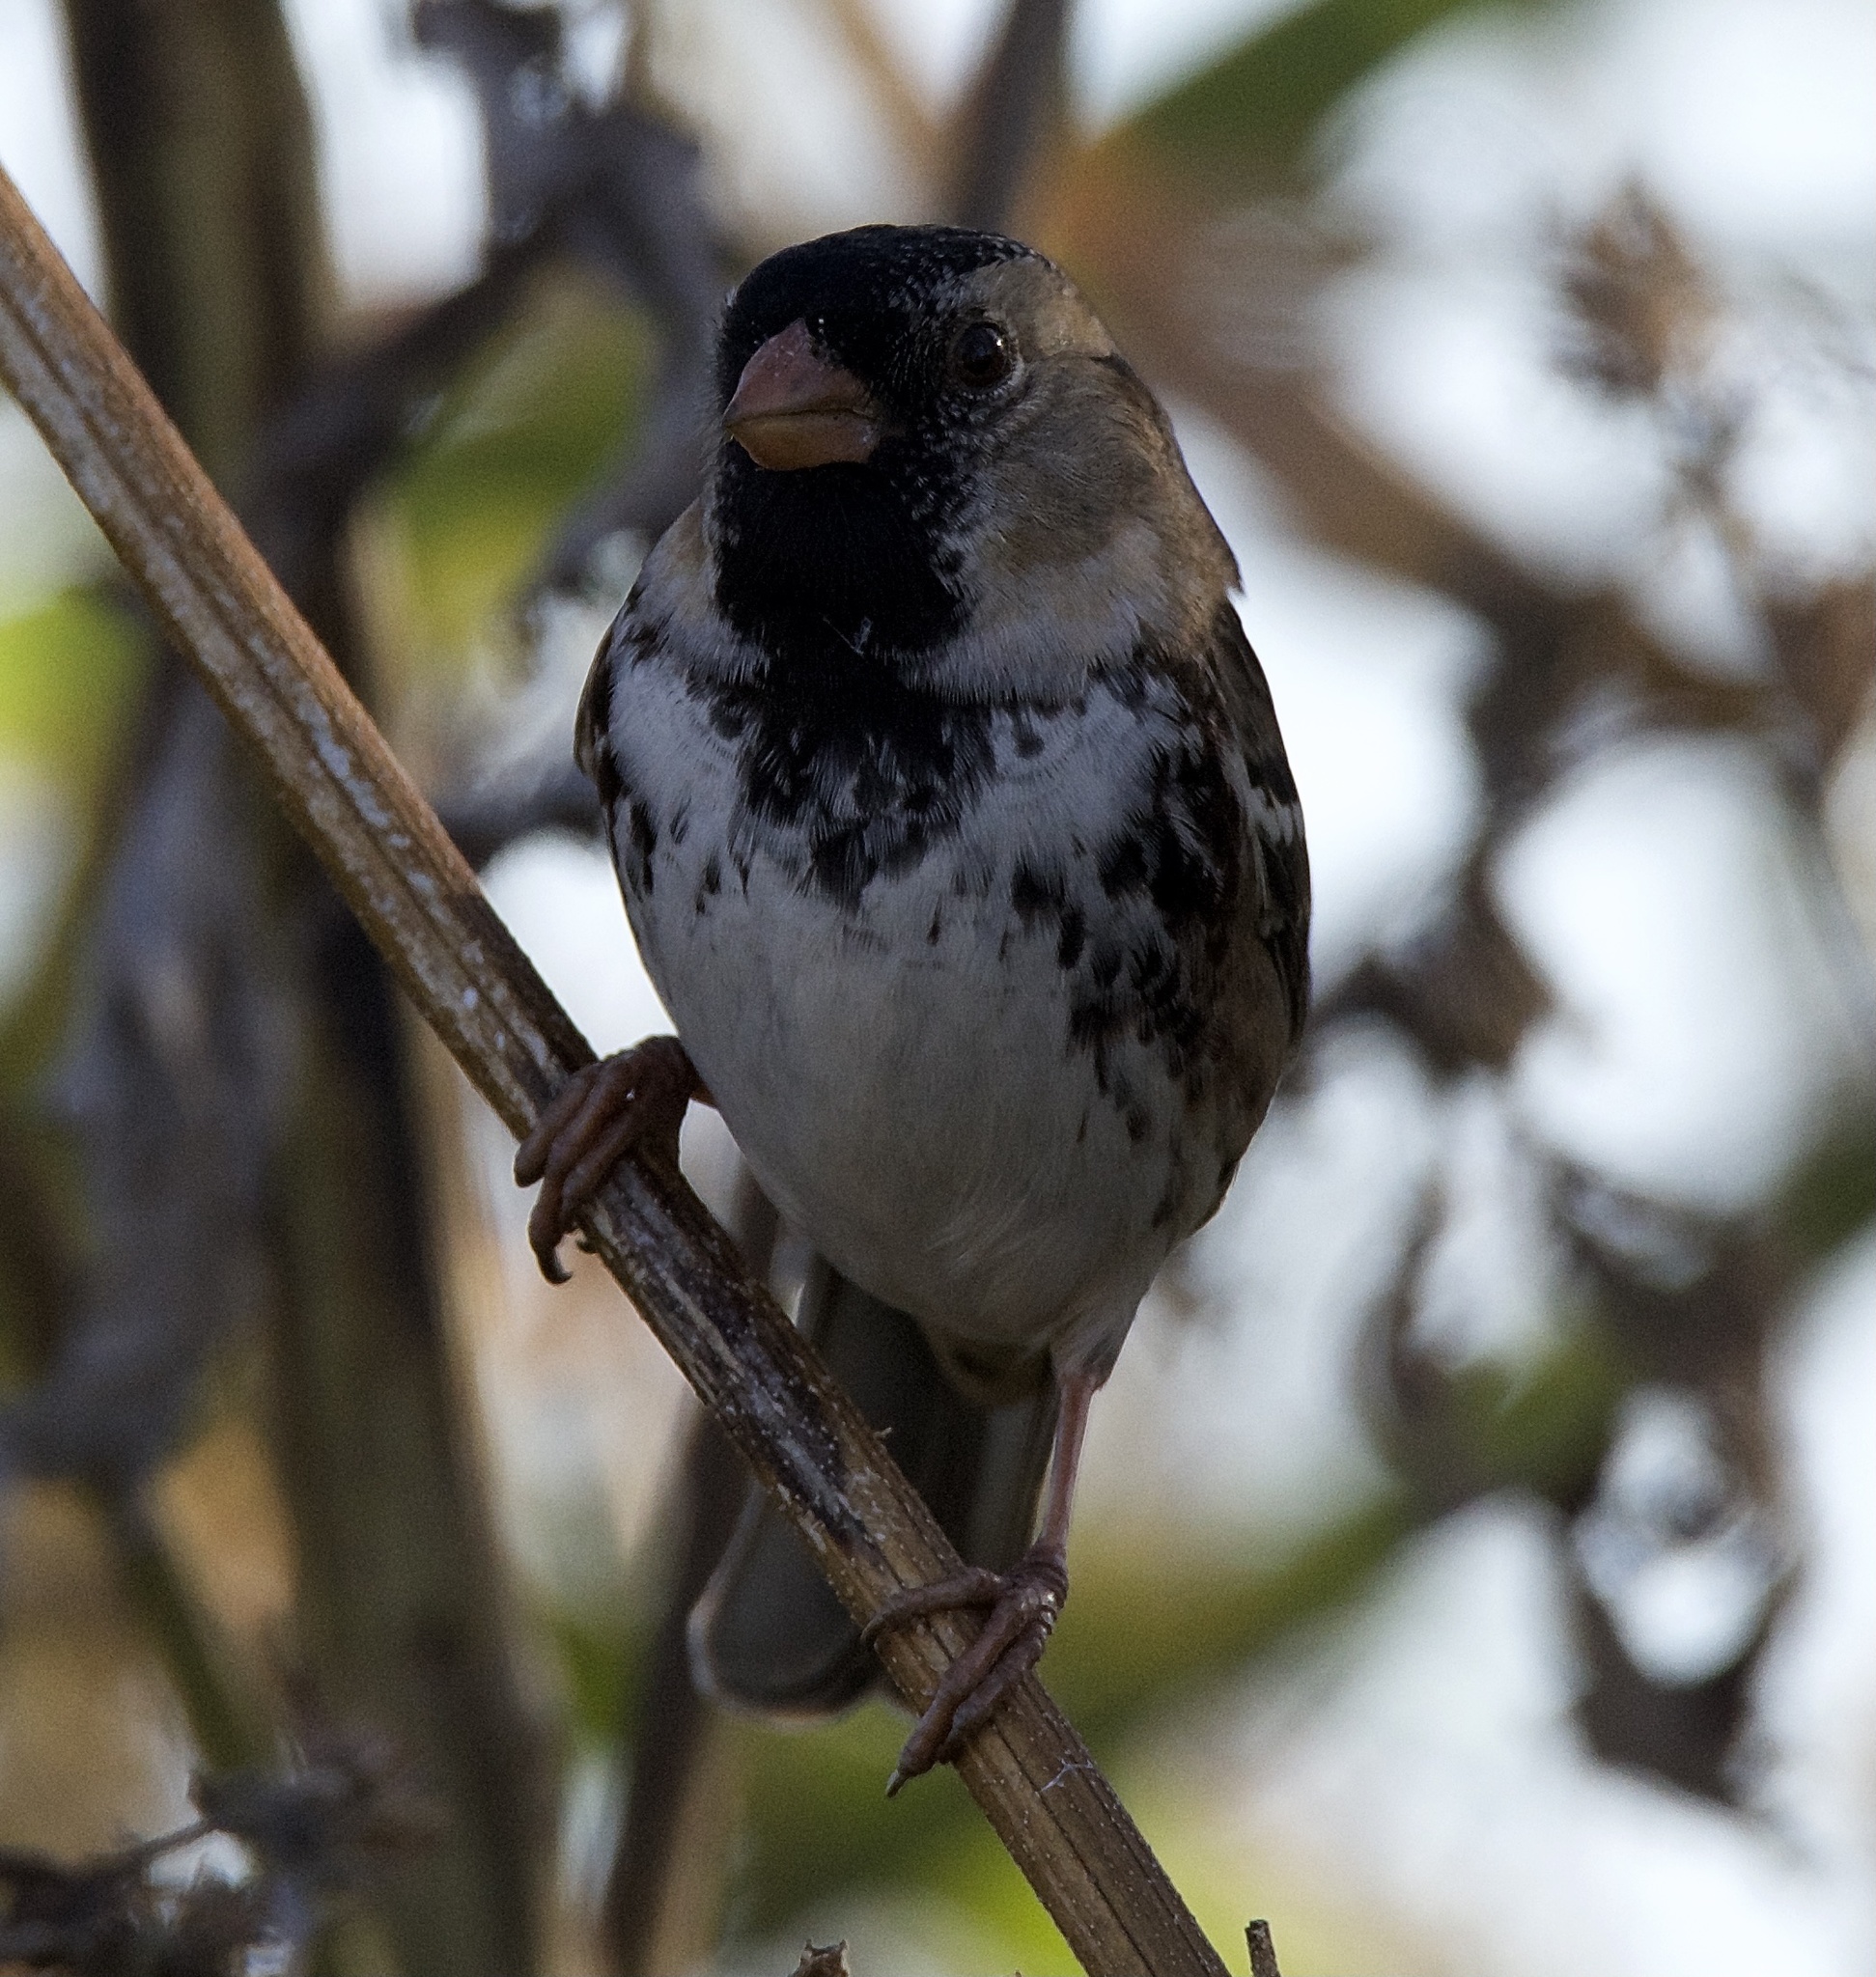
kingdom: Animalia
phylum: Chordata
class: Aves
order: Passeriformes
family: Passerellidae
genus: Zonotrichia
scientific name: Zonotrichia querula
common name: Harris's sparrow
